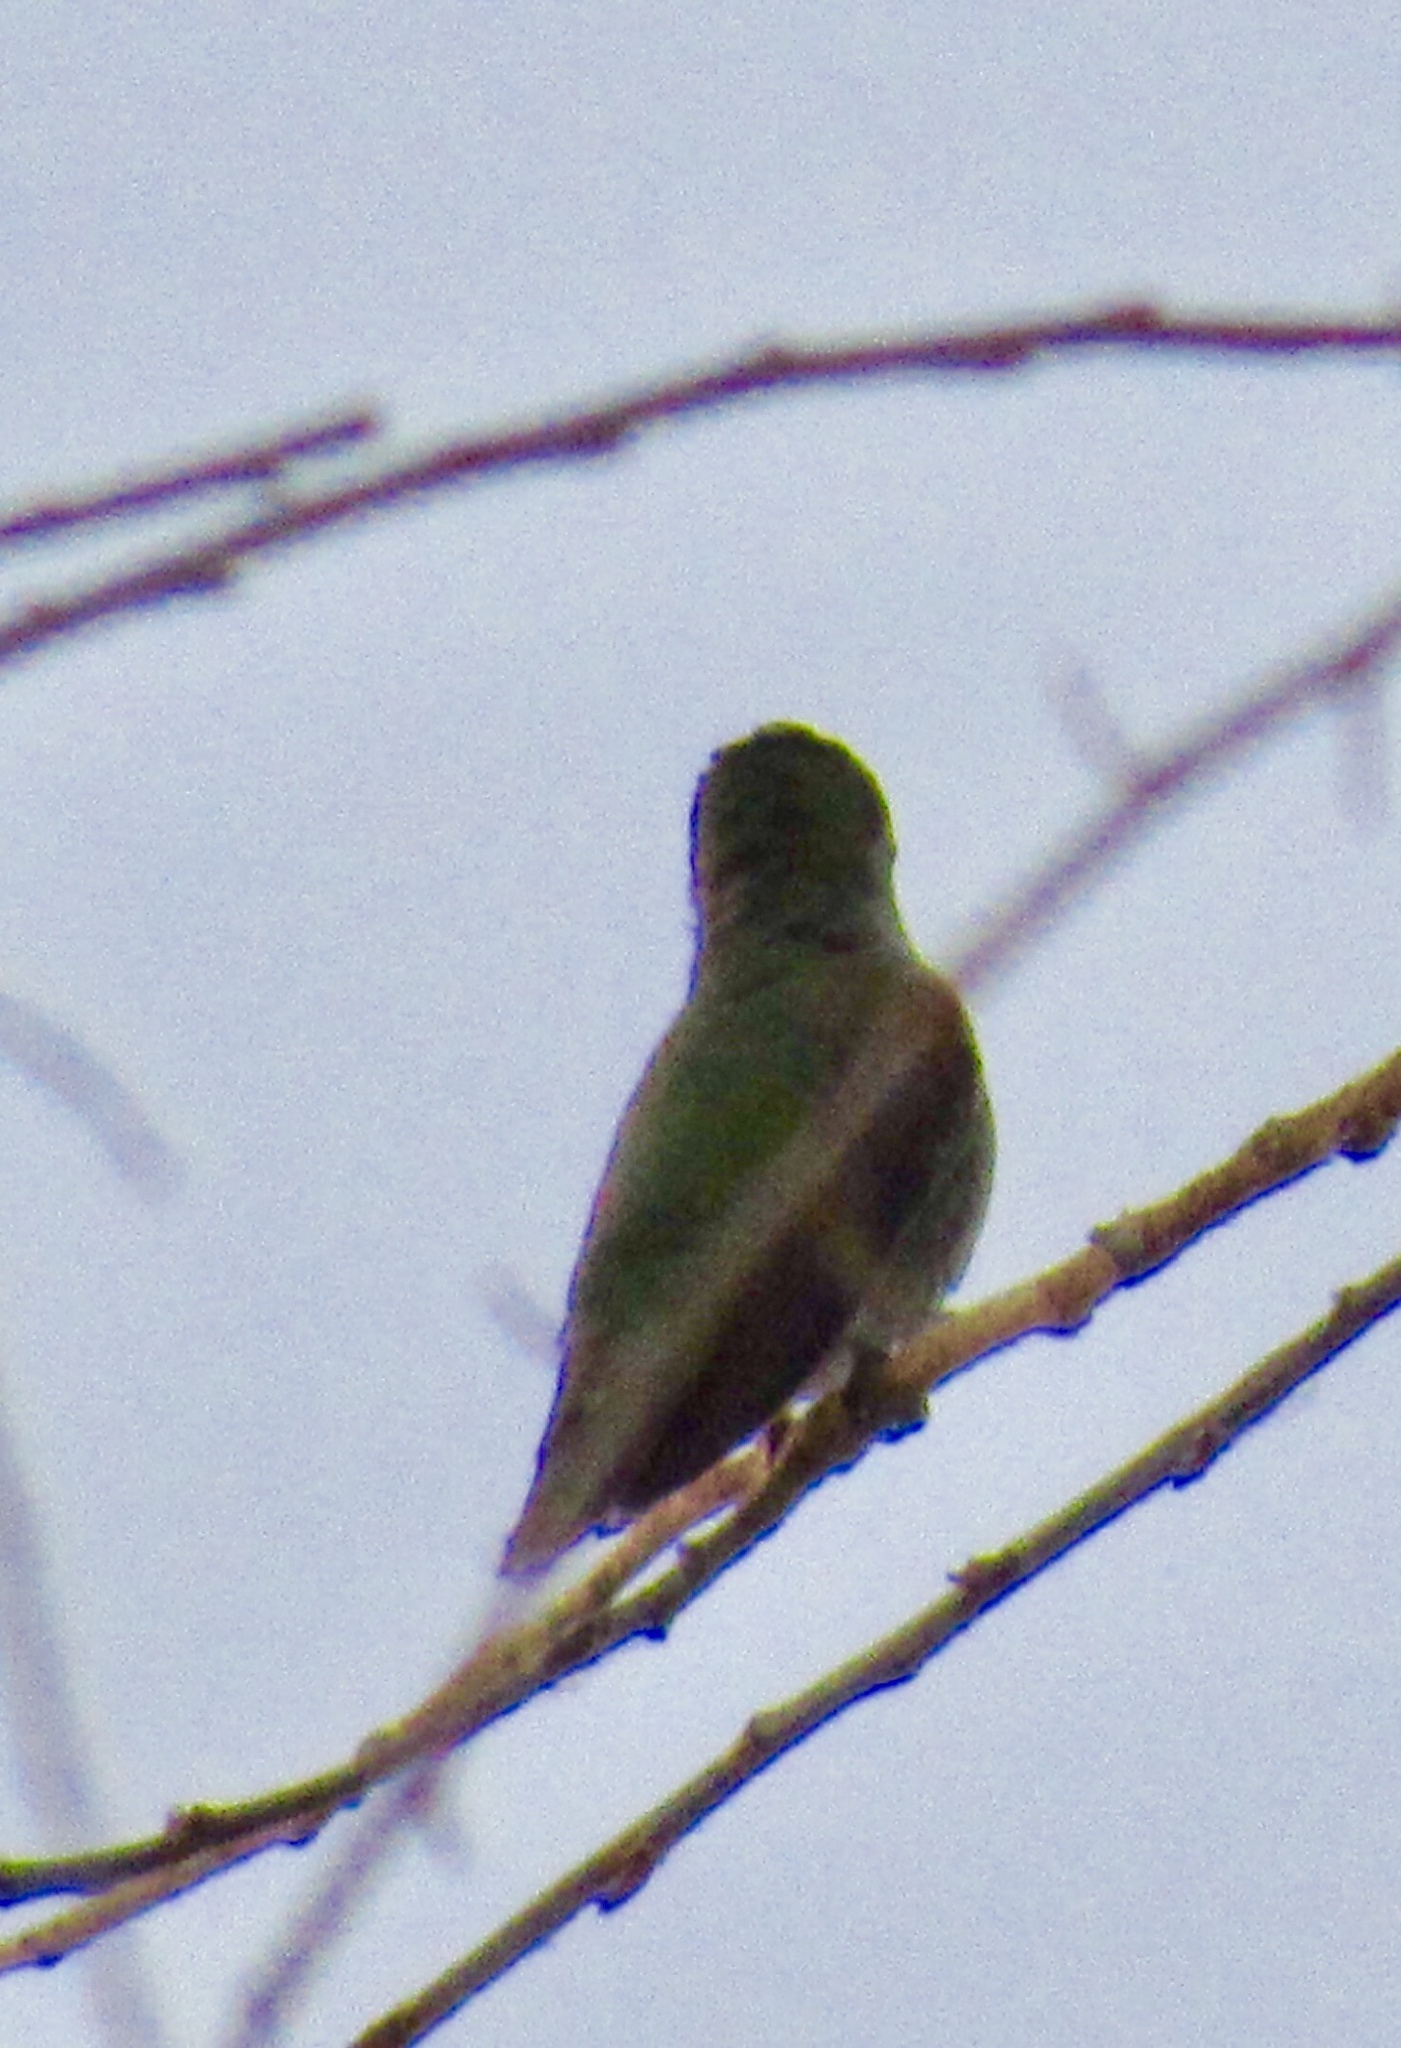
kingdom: Animalia
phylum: Chordata
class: Aves
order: Apodiformes
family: Trochilidae
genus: Calypte
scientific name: Calypte anna
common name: Anna's hummingbird
